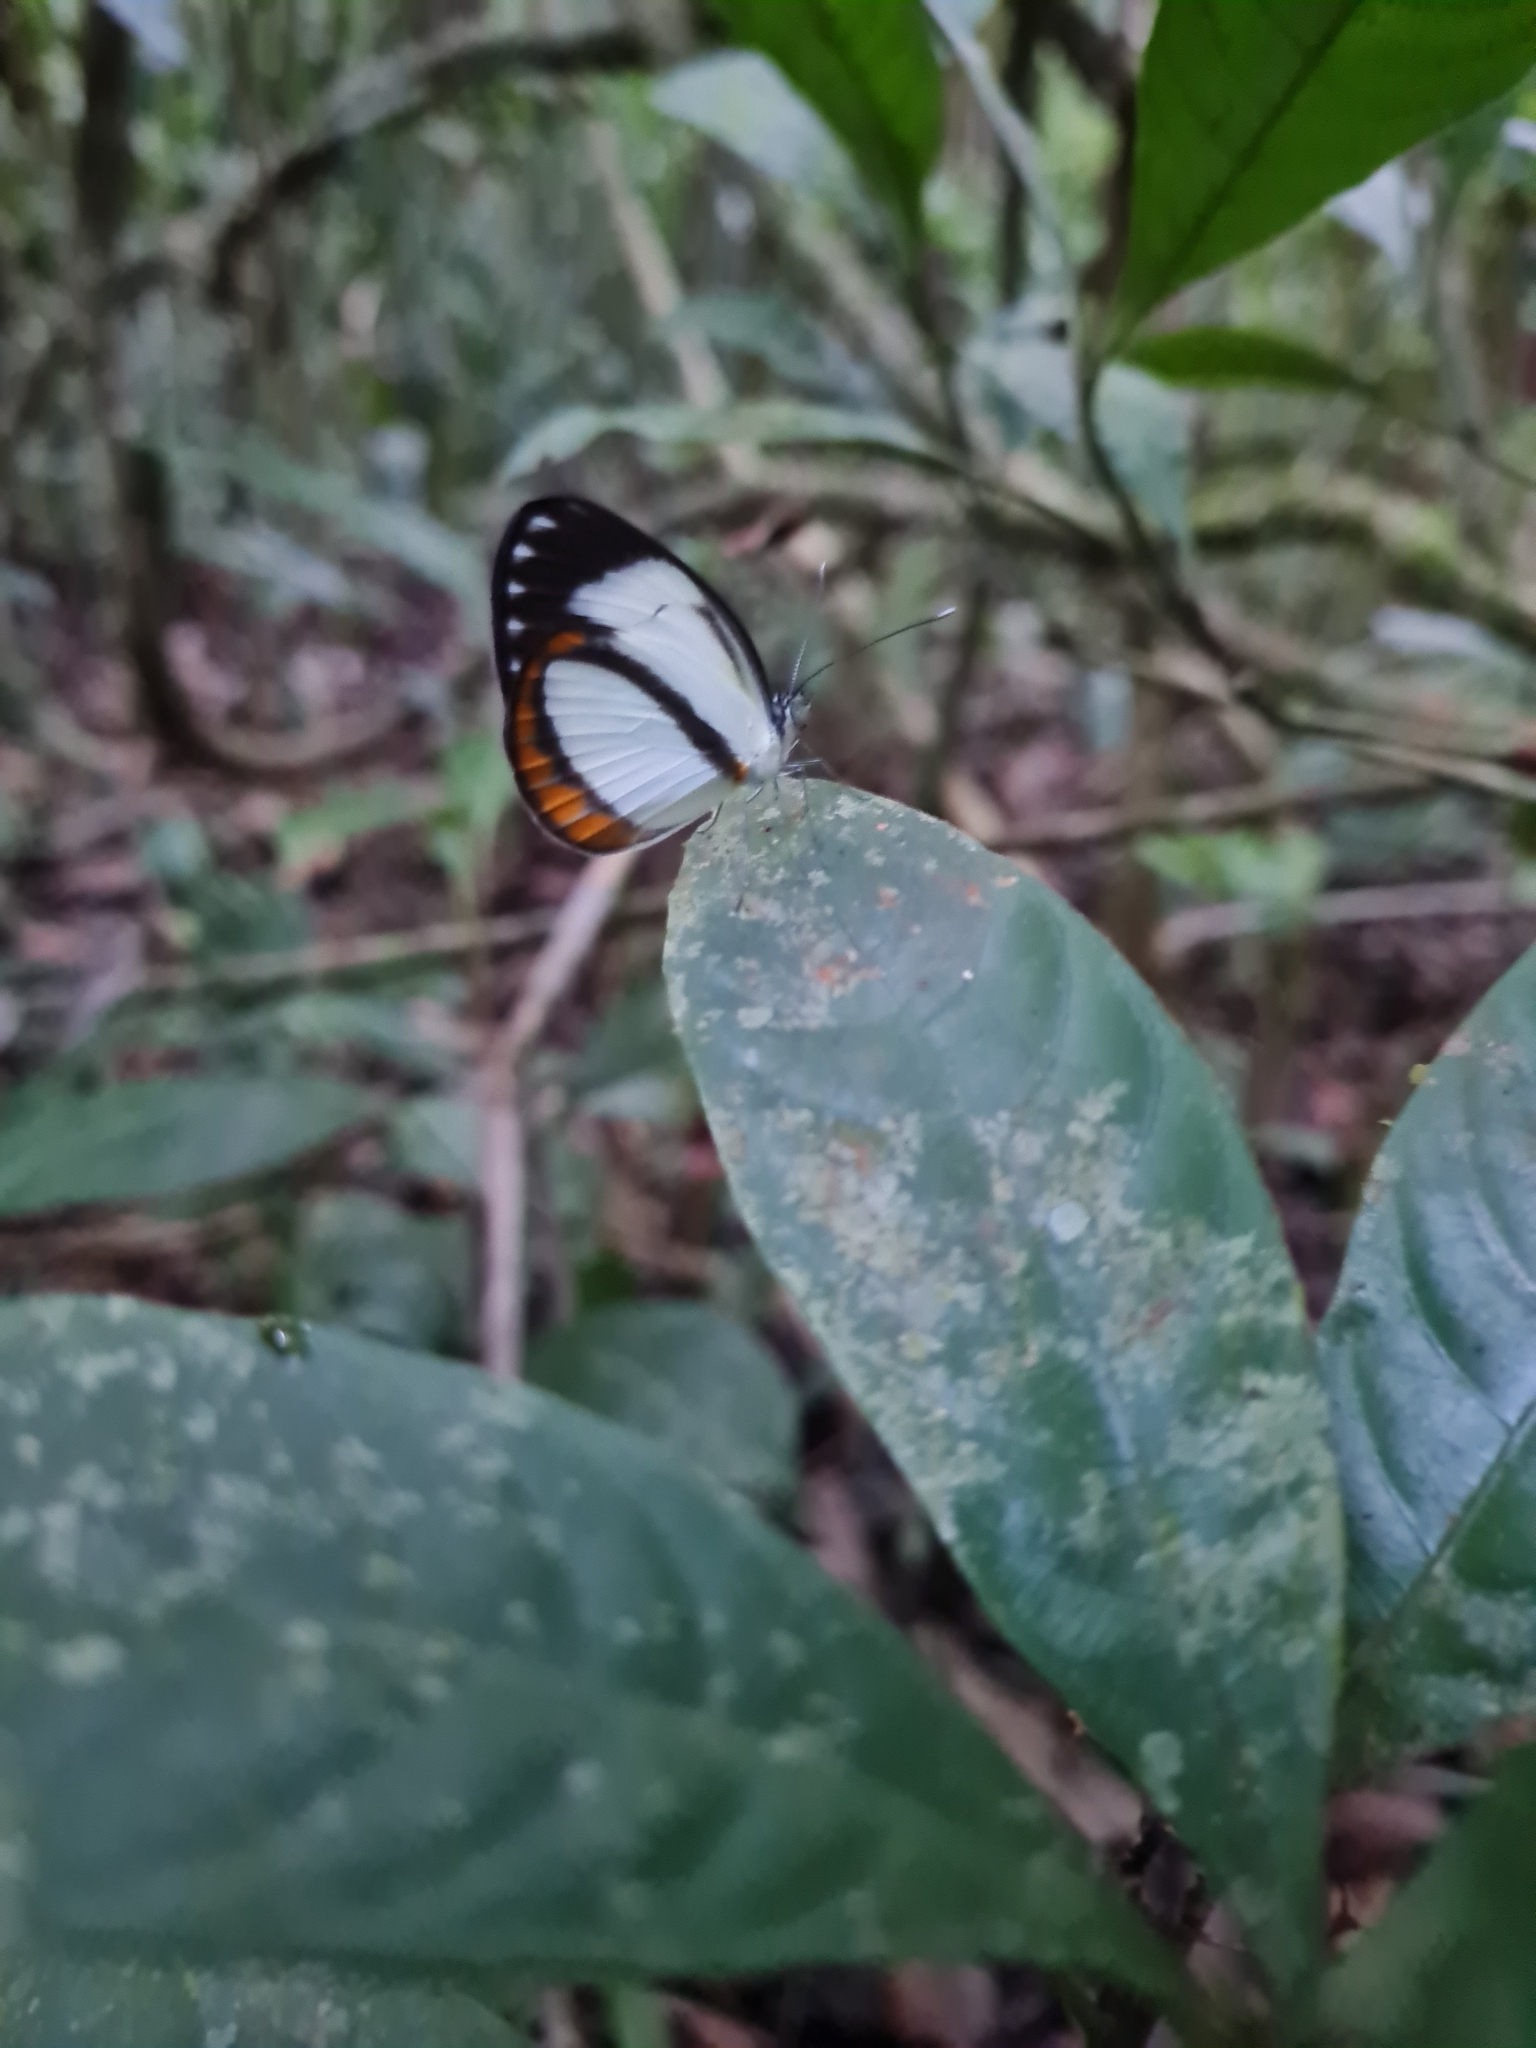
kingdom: Animalia
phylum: Arthropoda
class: Insecta
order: Lepidoptera
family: Pieridae
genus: Itaballia
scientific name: Itaballia pandosia
